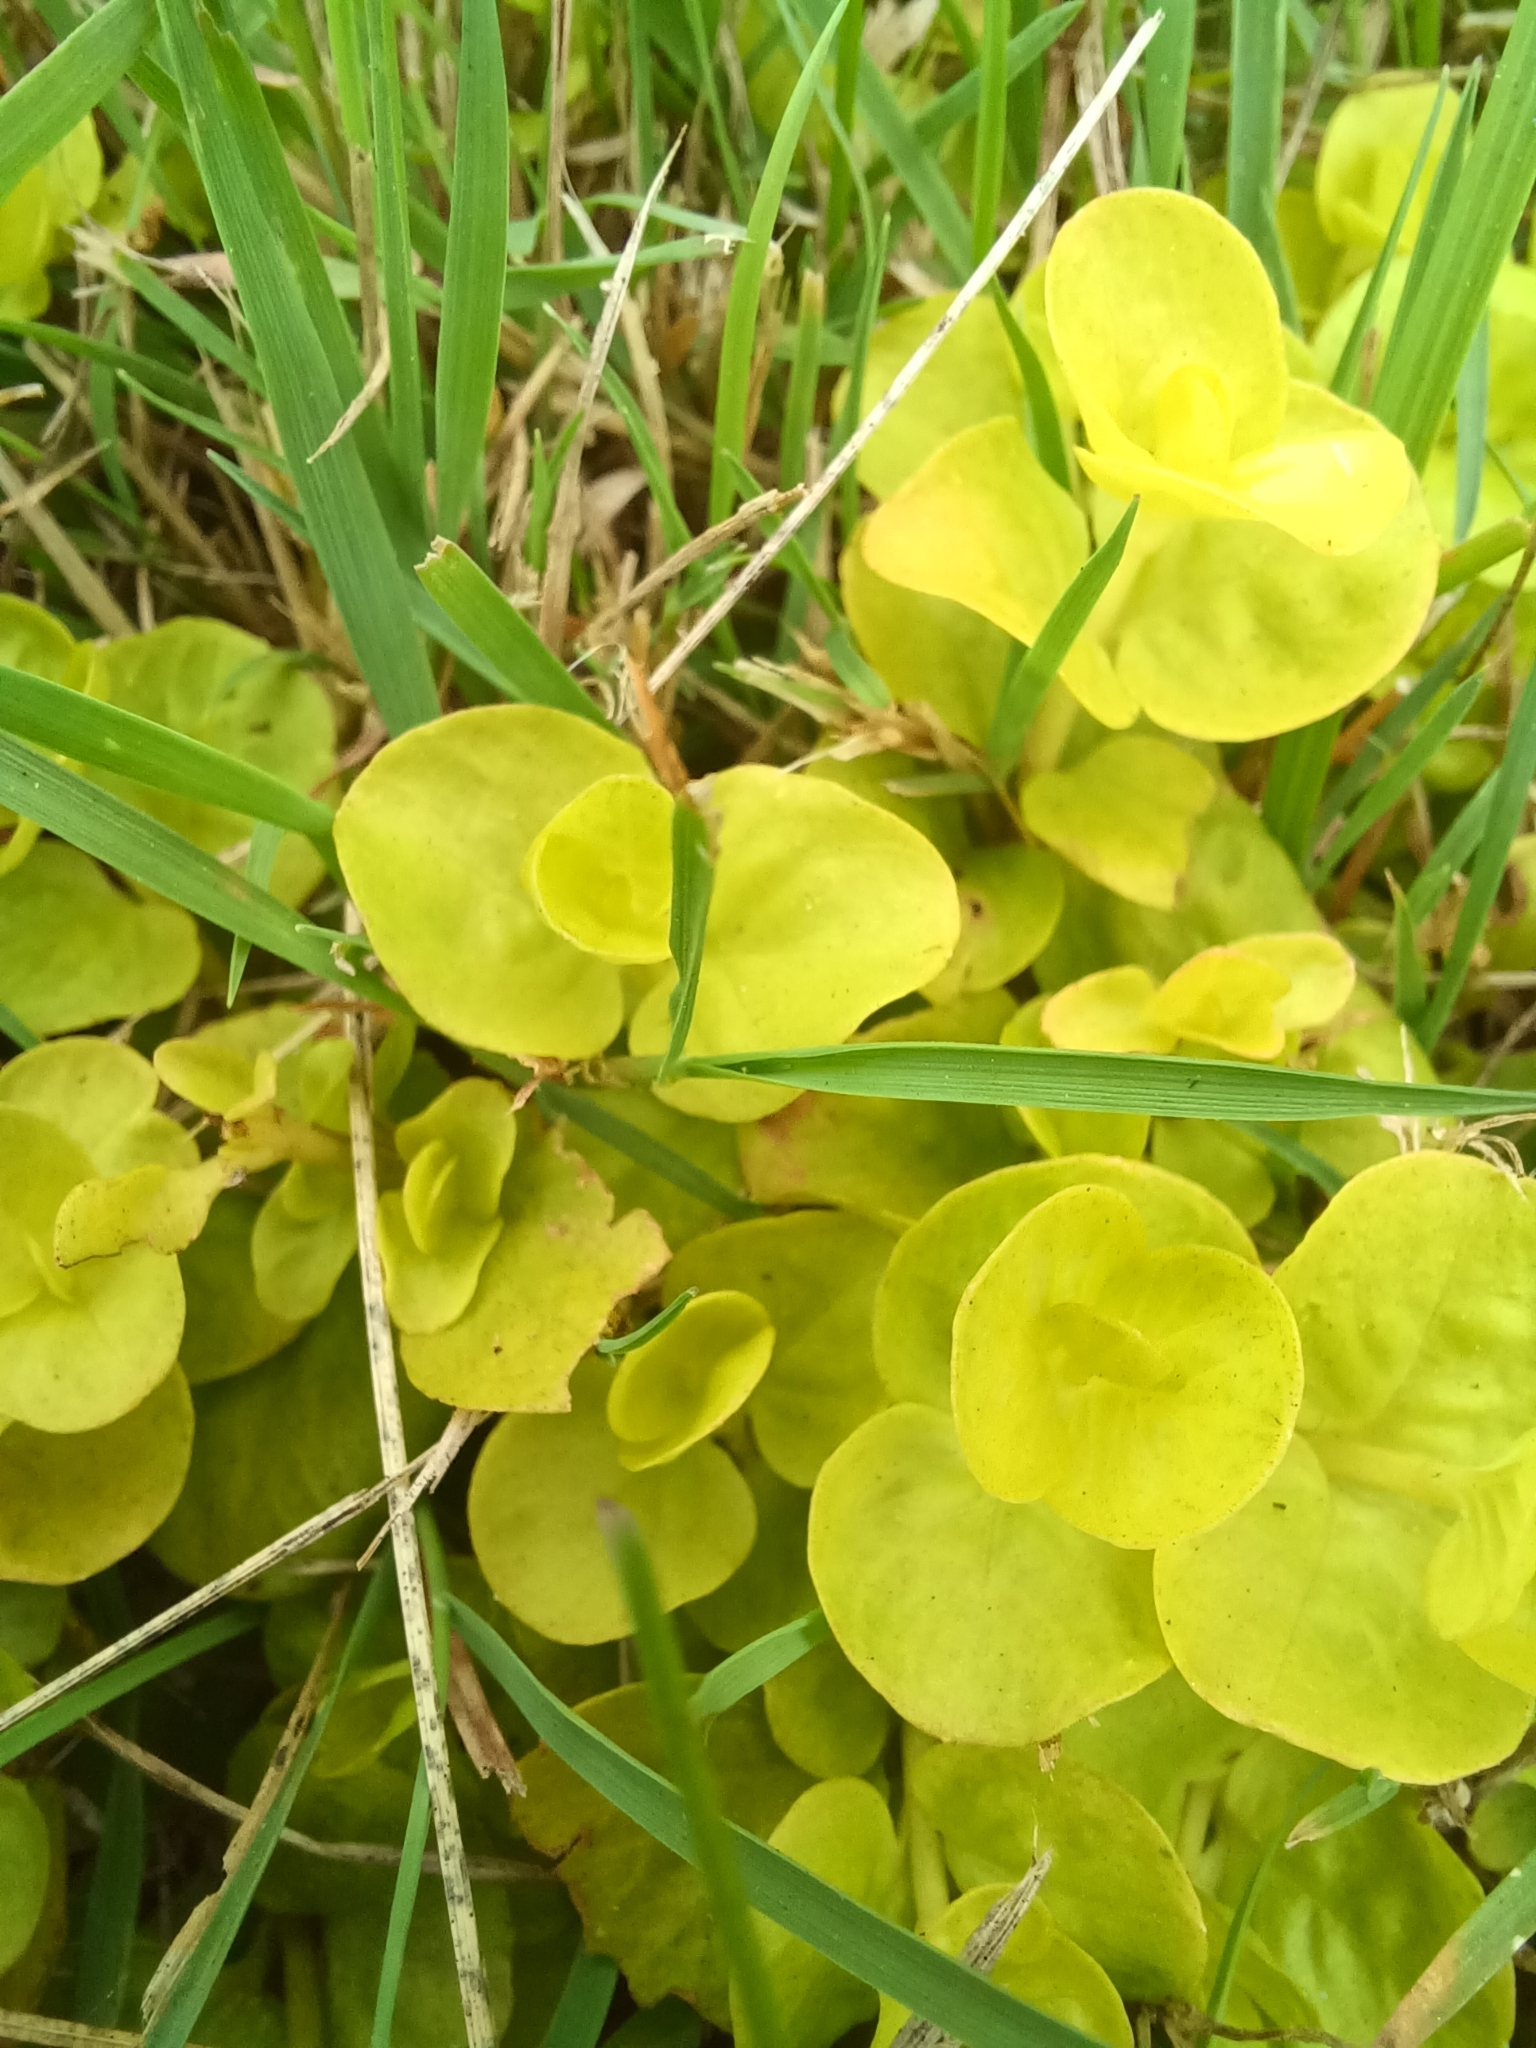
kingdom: Plantae
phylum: Tracheophyta
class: Magnoliopsida
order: Ericales
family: Primulaceae
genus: Lysimachia
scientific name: Lysimachia nummularia
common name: Moneywort
